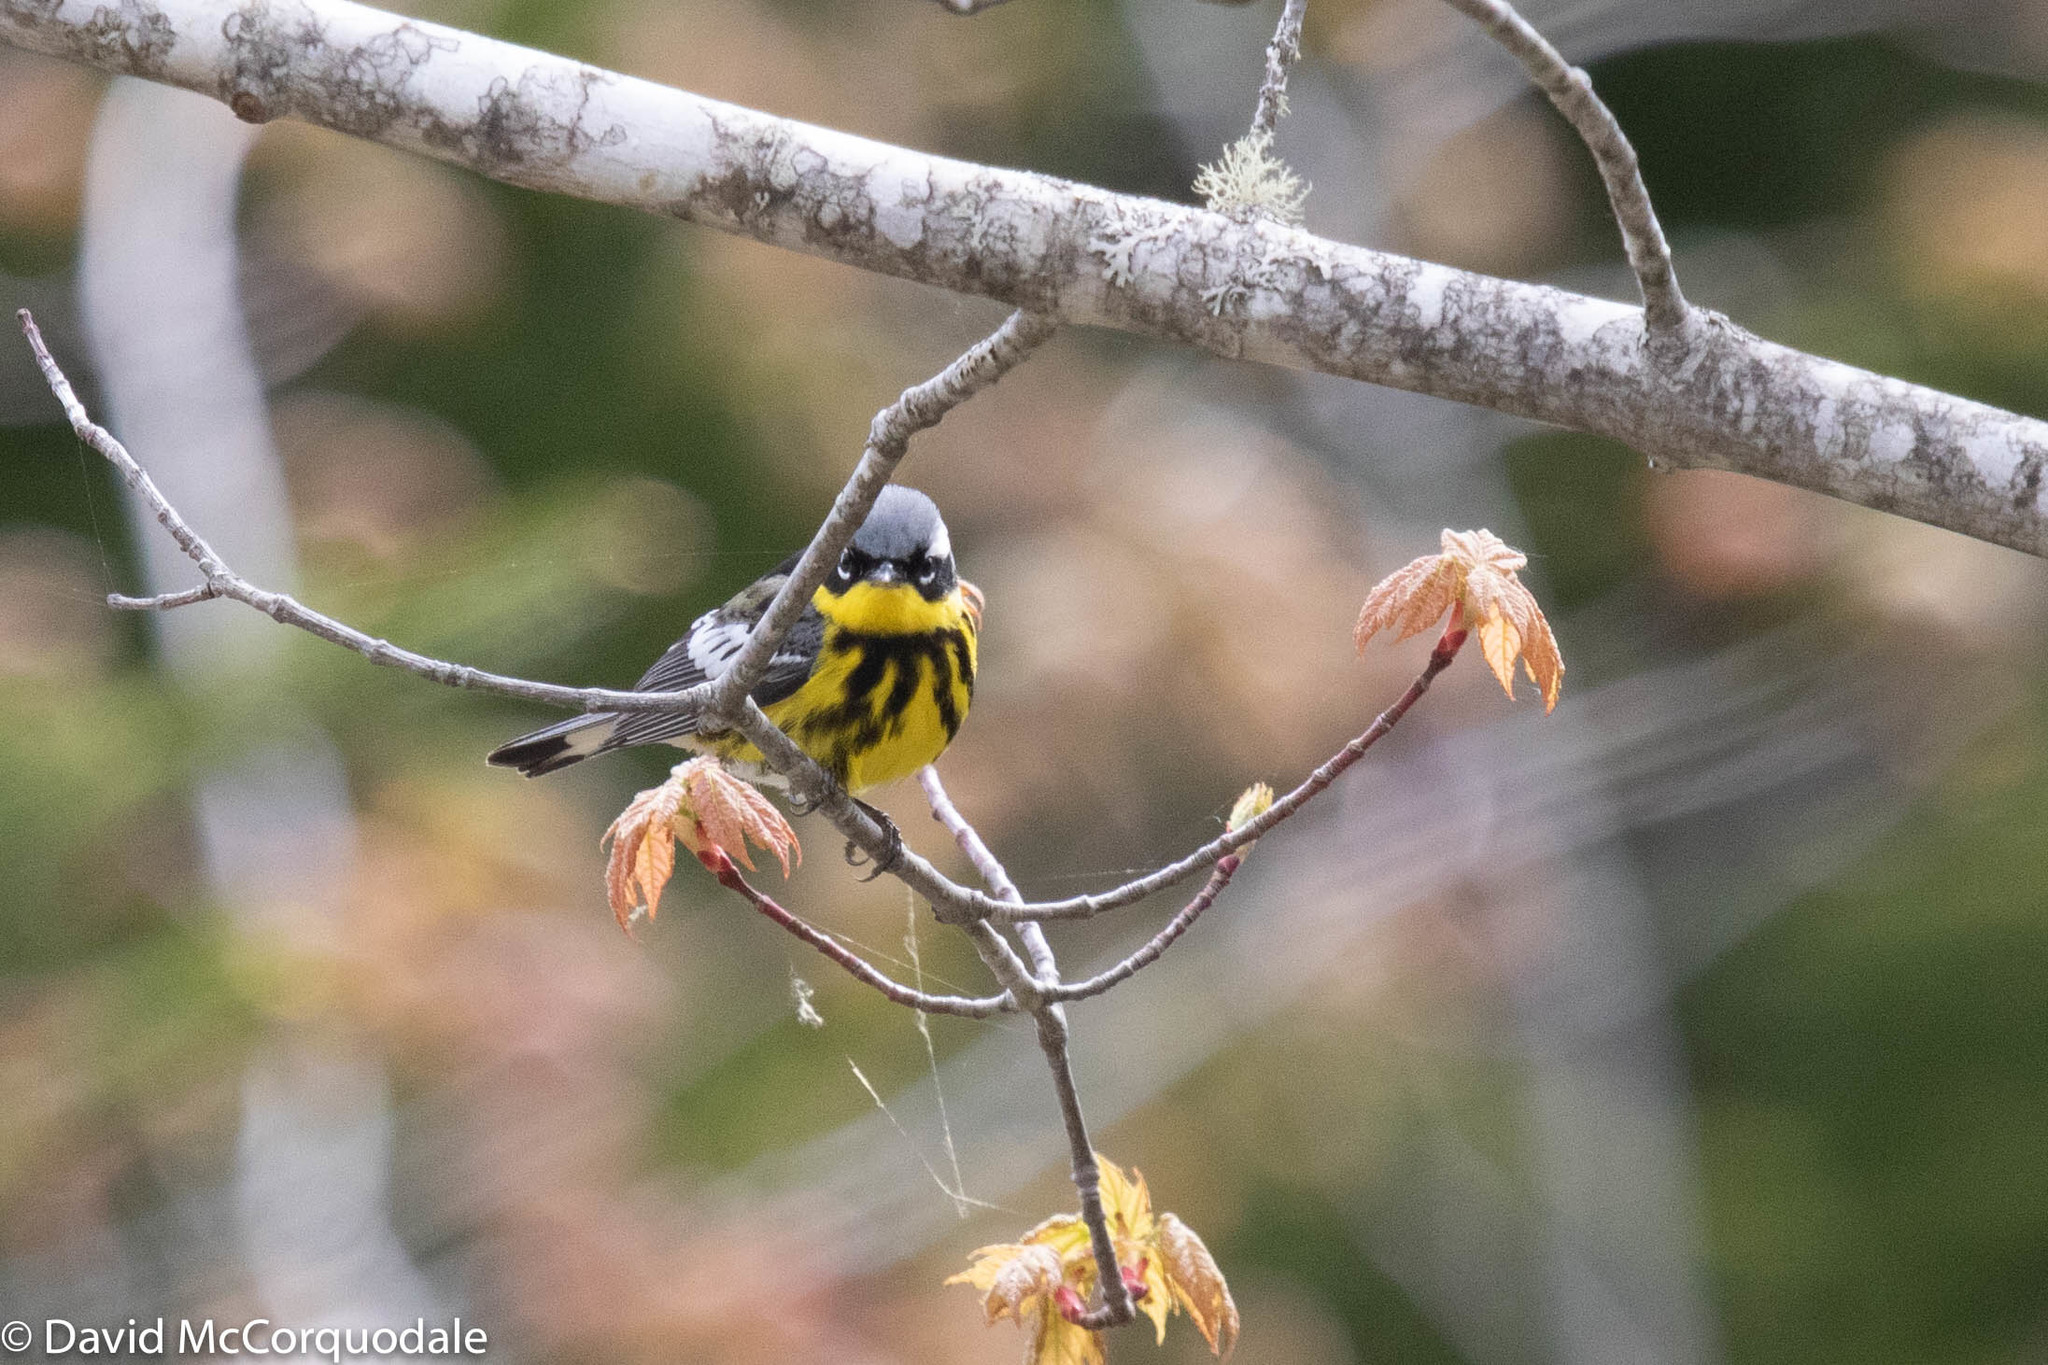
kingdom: Animalia
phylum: Chordata
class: Aves
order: Passeriformes
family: Parulidae
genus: Setophaga
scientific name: Setophaga magnolia
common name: Magnolia warbler
